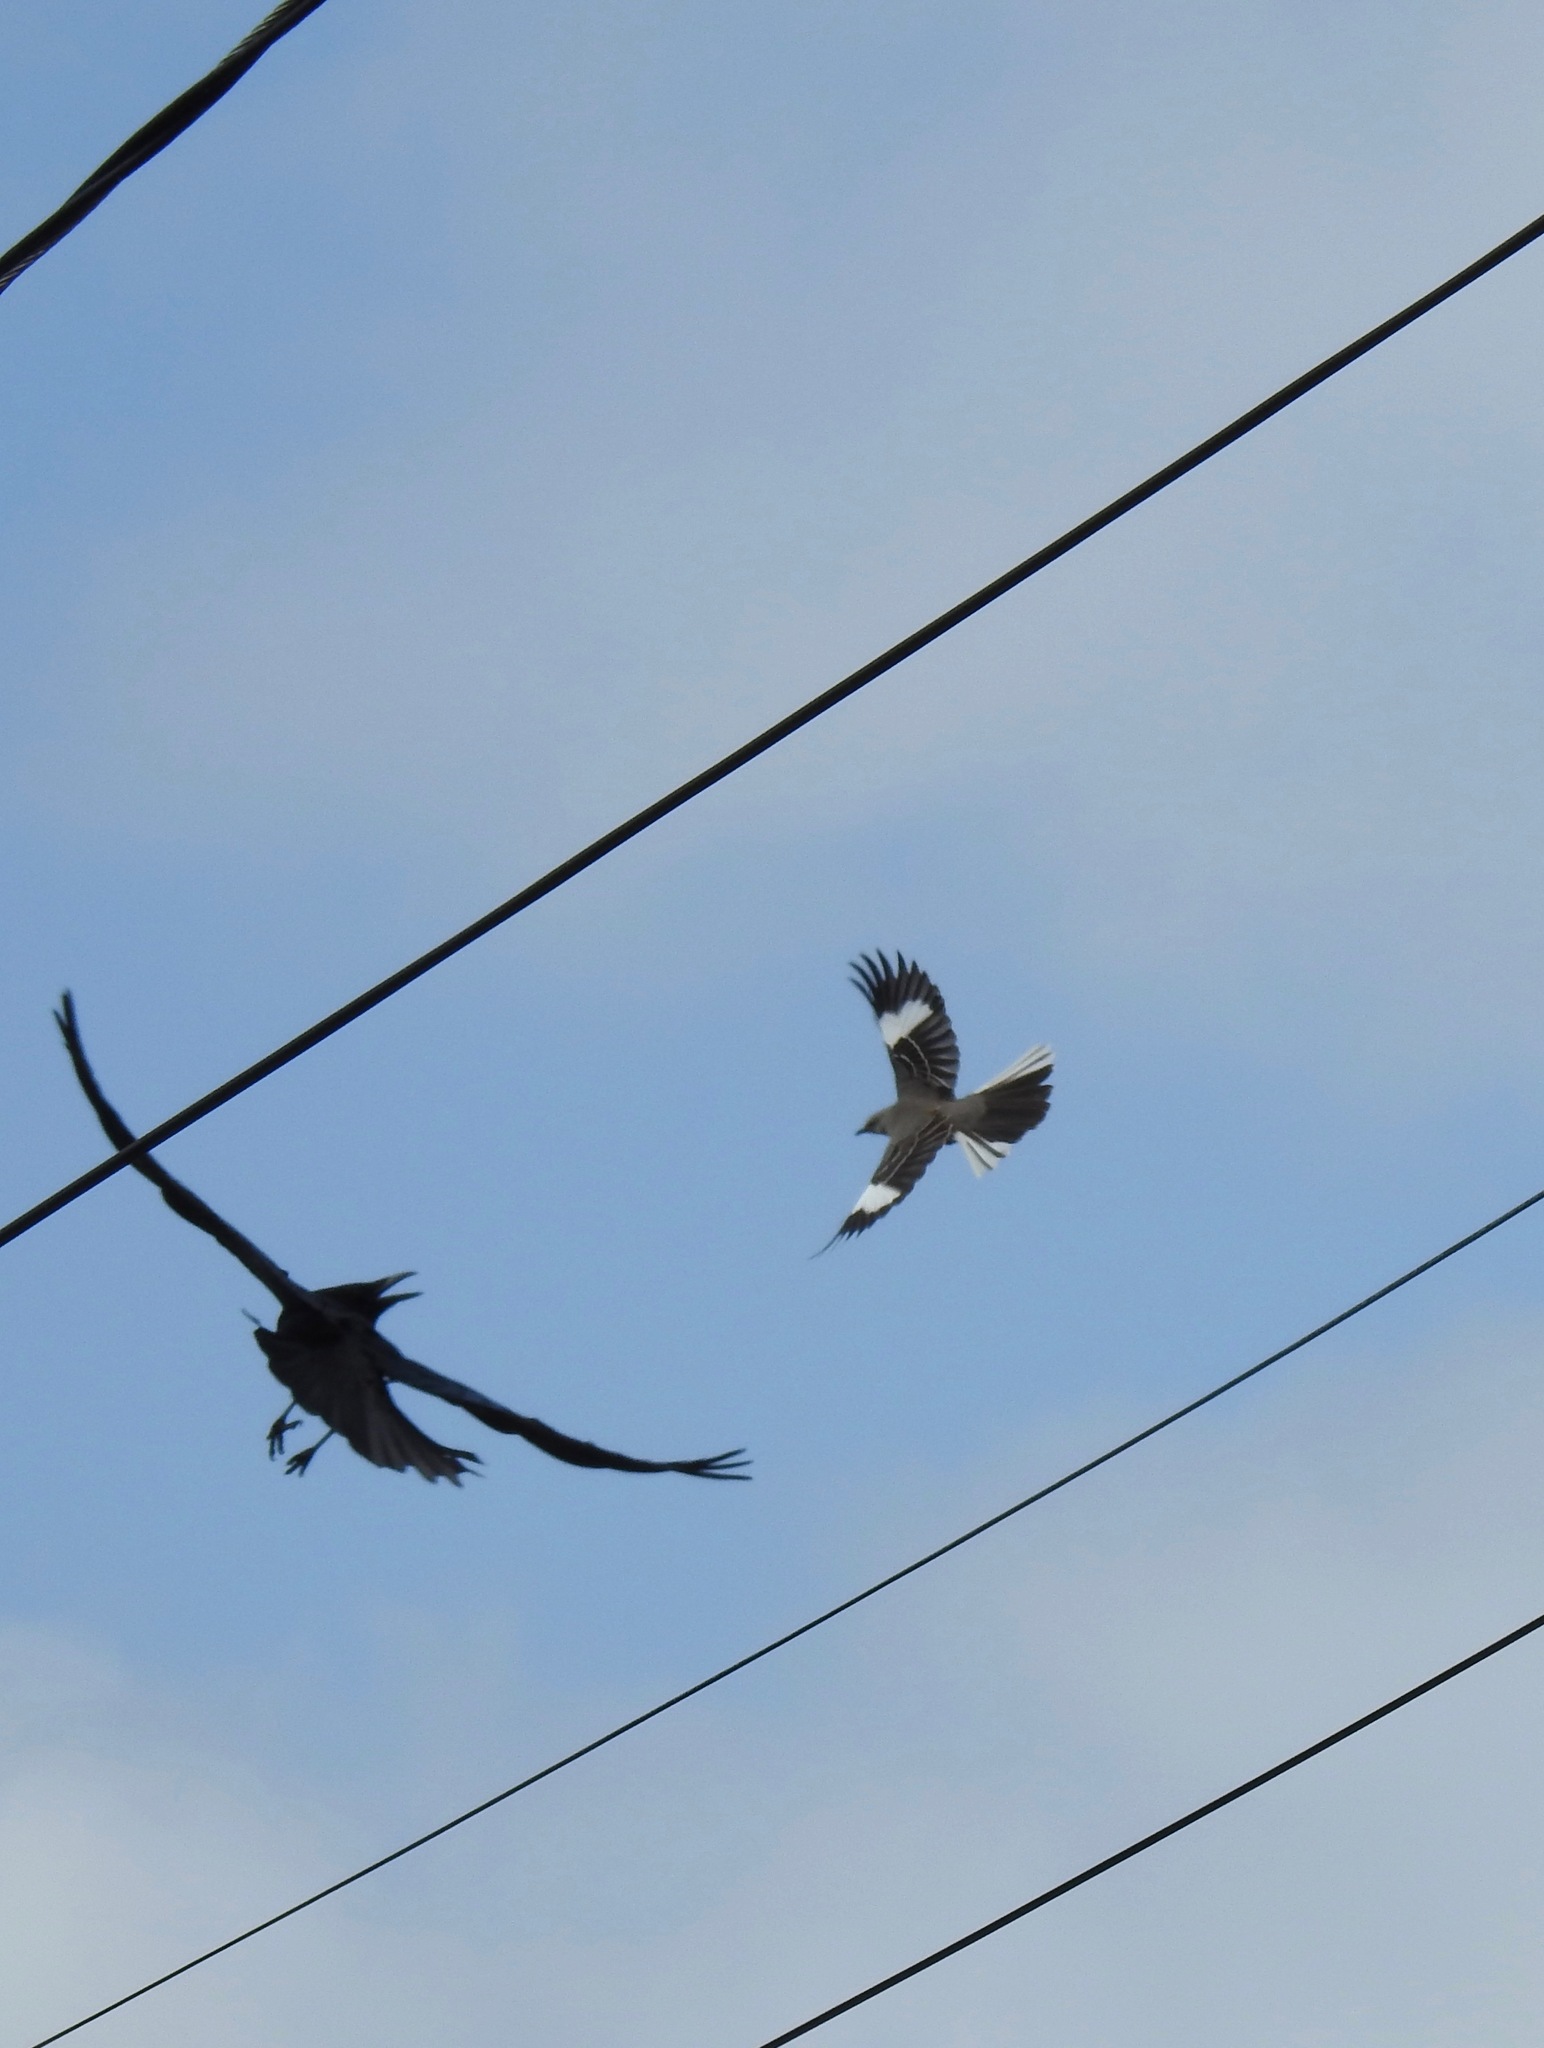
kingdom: Animalia
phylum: Chordata
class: Aves
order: Passeriformes
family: Mimidae
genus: Mimus
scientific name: Mimus polyglottos
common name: Northern mockingbird
